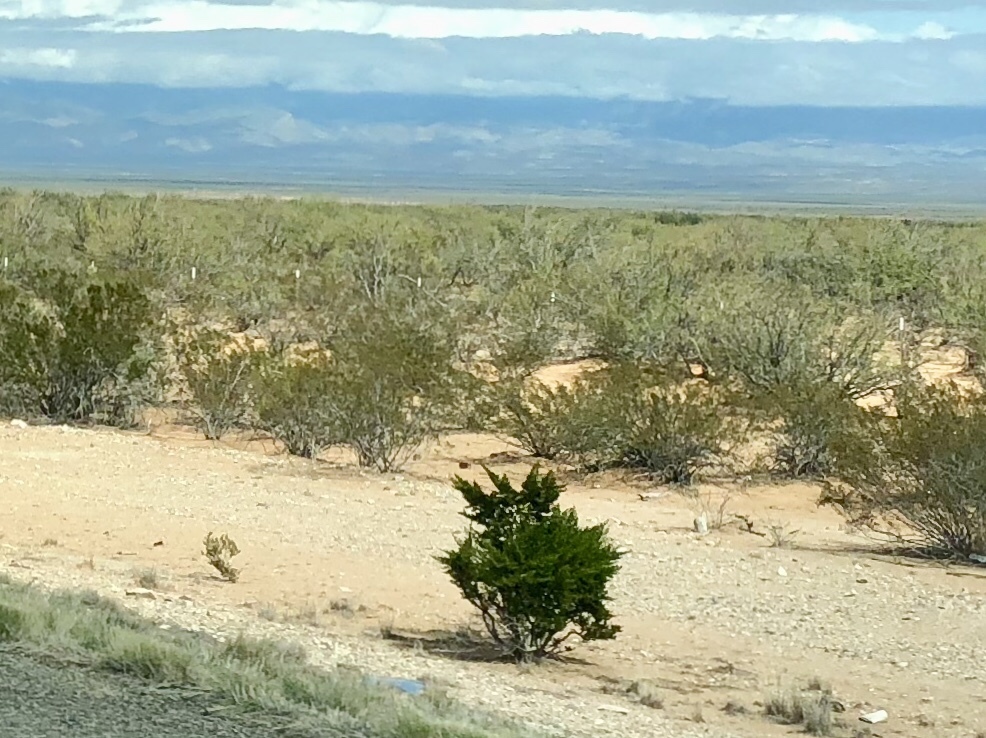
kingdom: Plantae
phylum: Tracheophyta
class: Magnoliopsida
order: Zygophyllales
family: Zygophyllaceae
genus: Larrea
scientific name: Larrea tridentata
